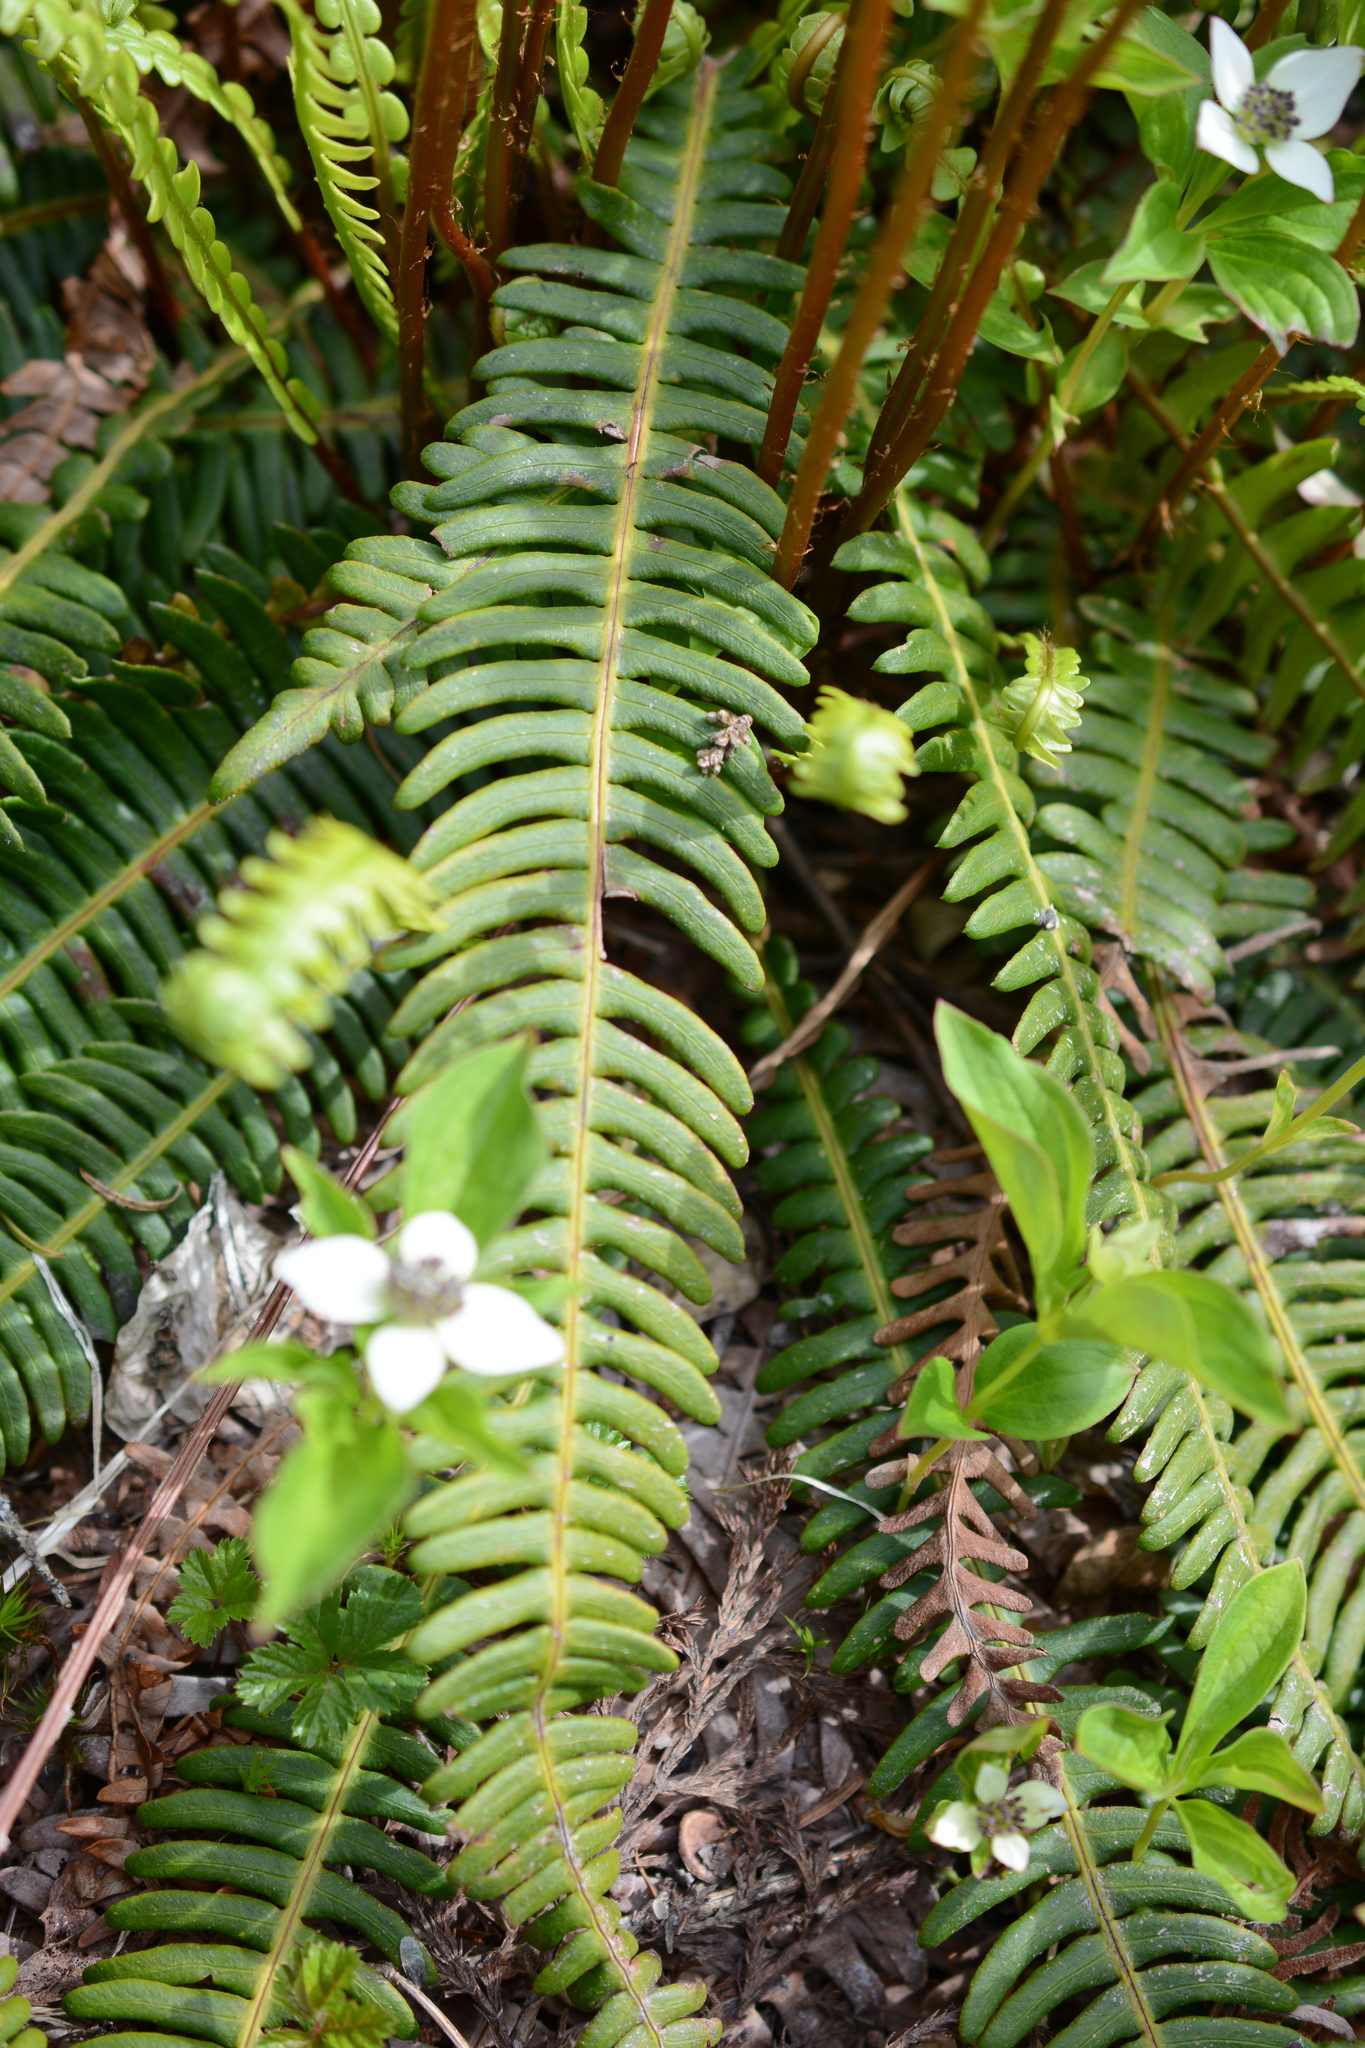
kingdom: Plantae
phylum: Tracheophyta
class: Polypodiopsida
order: Polypodiales
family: Blechnaceae
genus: Struthiopteris
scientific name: Struthiopteris spicant
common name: Deer fern
